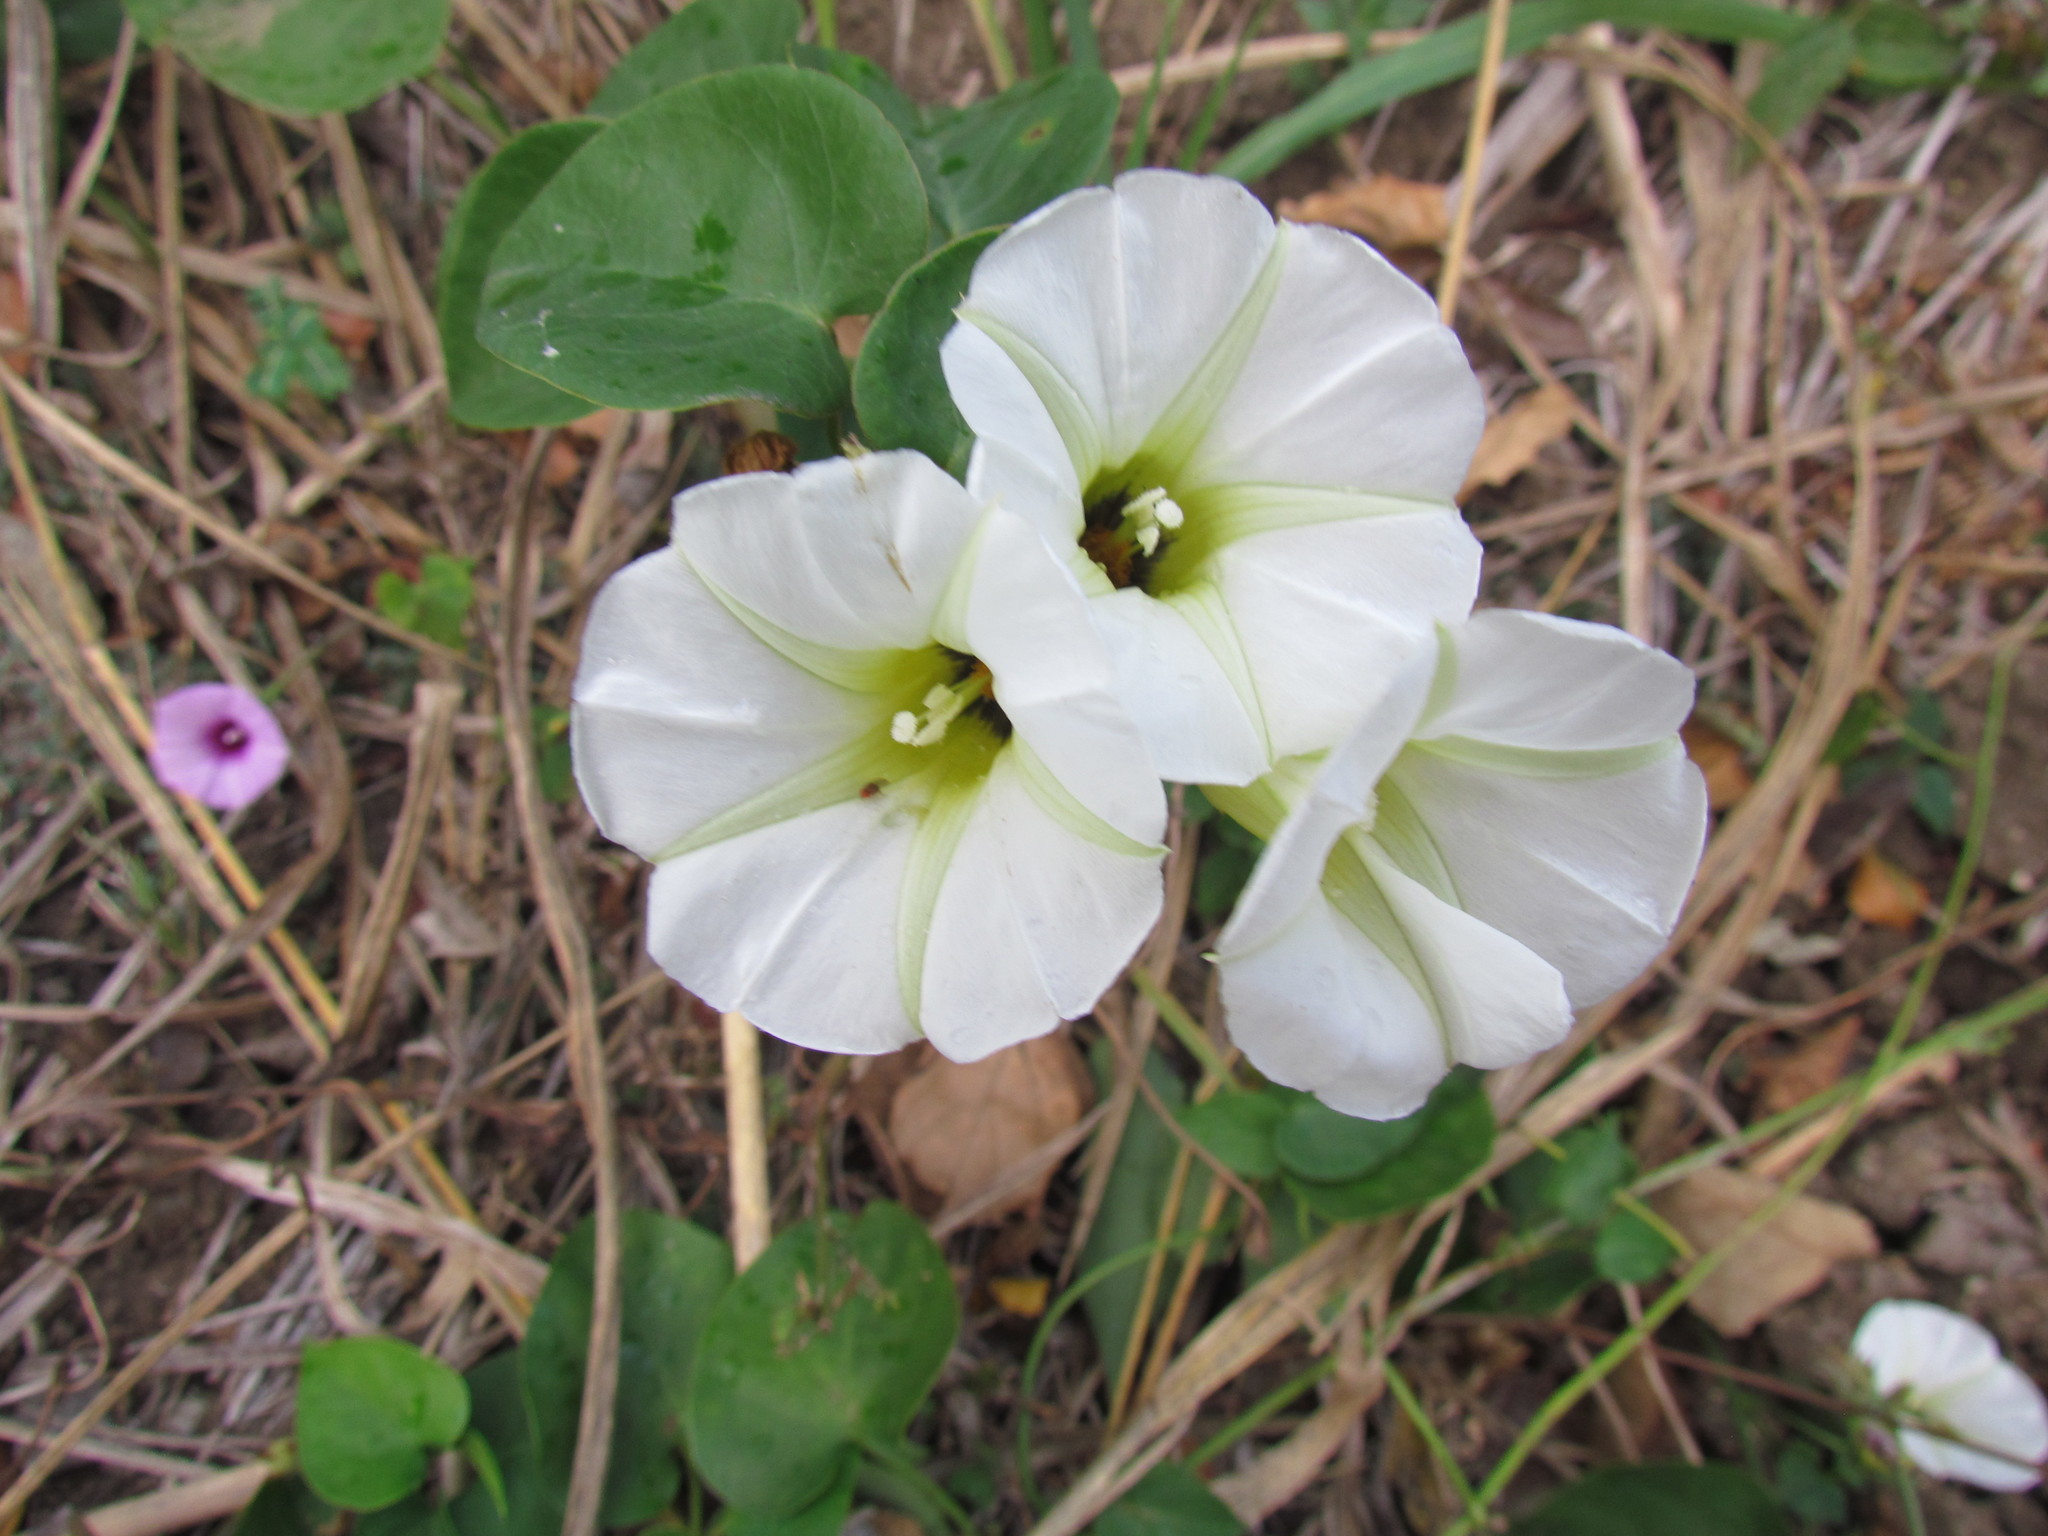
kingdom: Plantae
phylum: Tracheophyta
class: Magnoliopsida
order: Solanales
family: Convolvulaceae
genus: Ipomoea
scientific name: Ipomoea corymbosa
